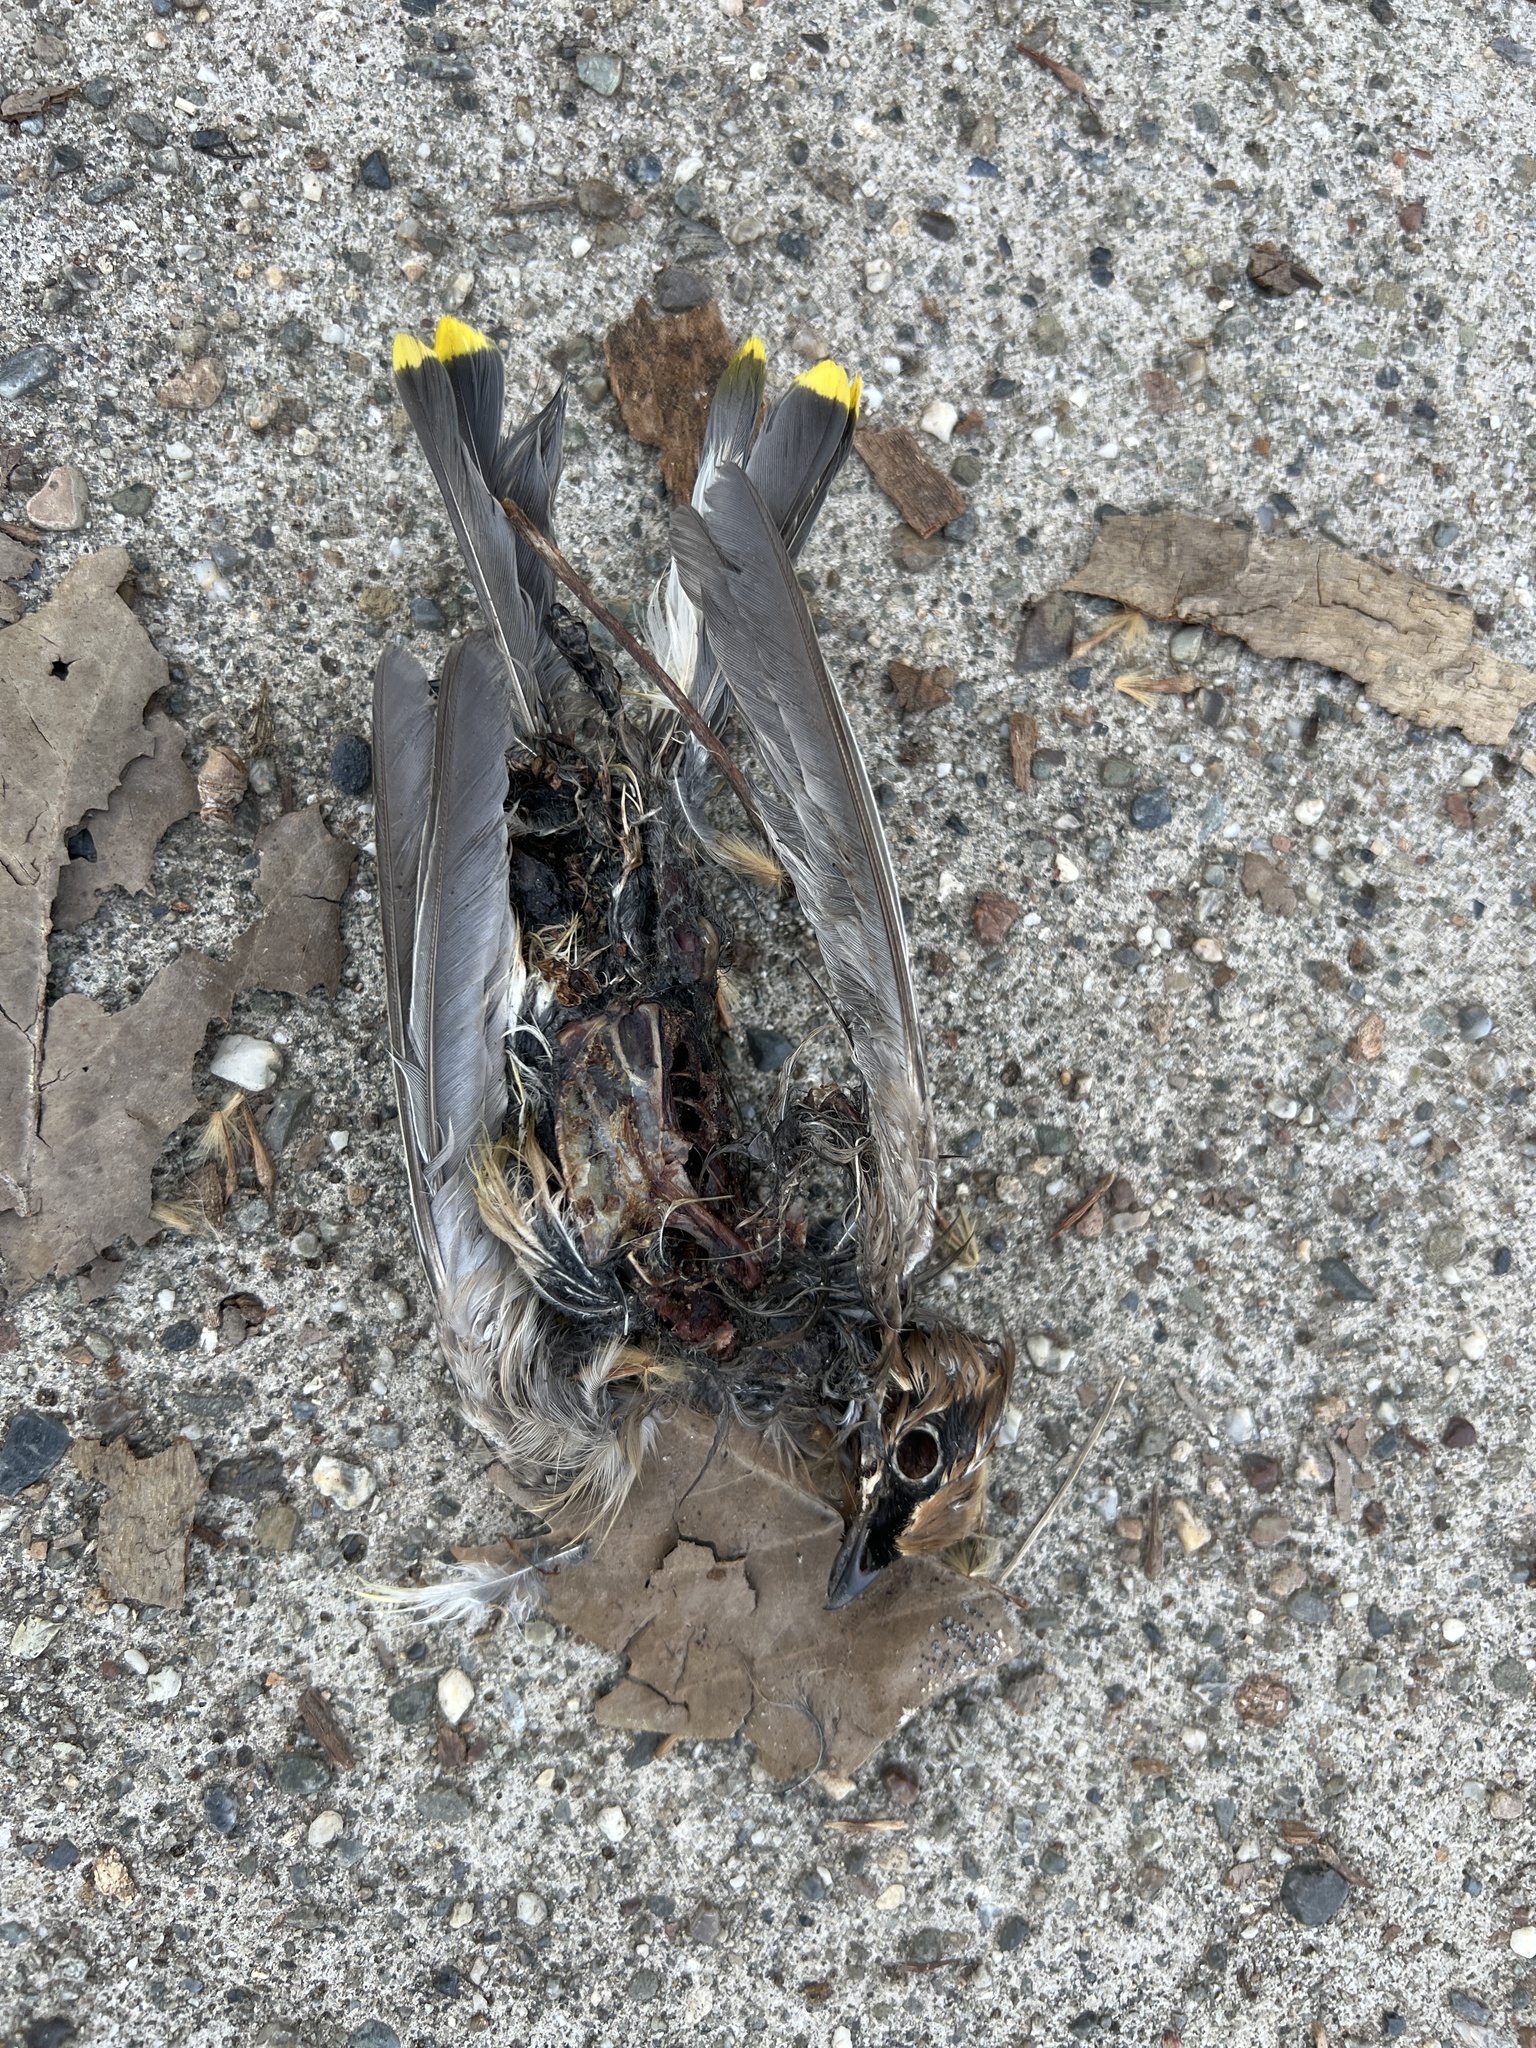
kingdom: Animalia
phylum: Chordata
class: Aves
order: Passeriformes
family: Bombycillidae
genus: Bombycilla
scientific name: Bombycilla cedrorum
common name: Cedar waxwing
